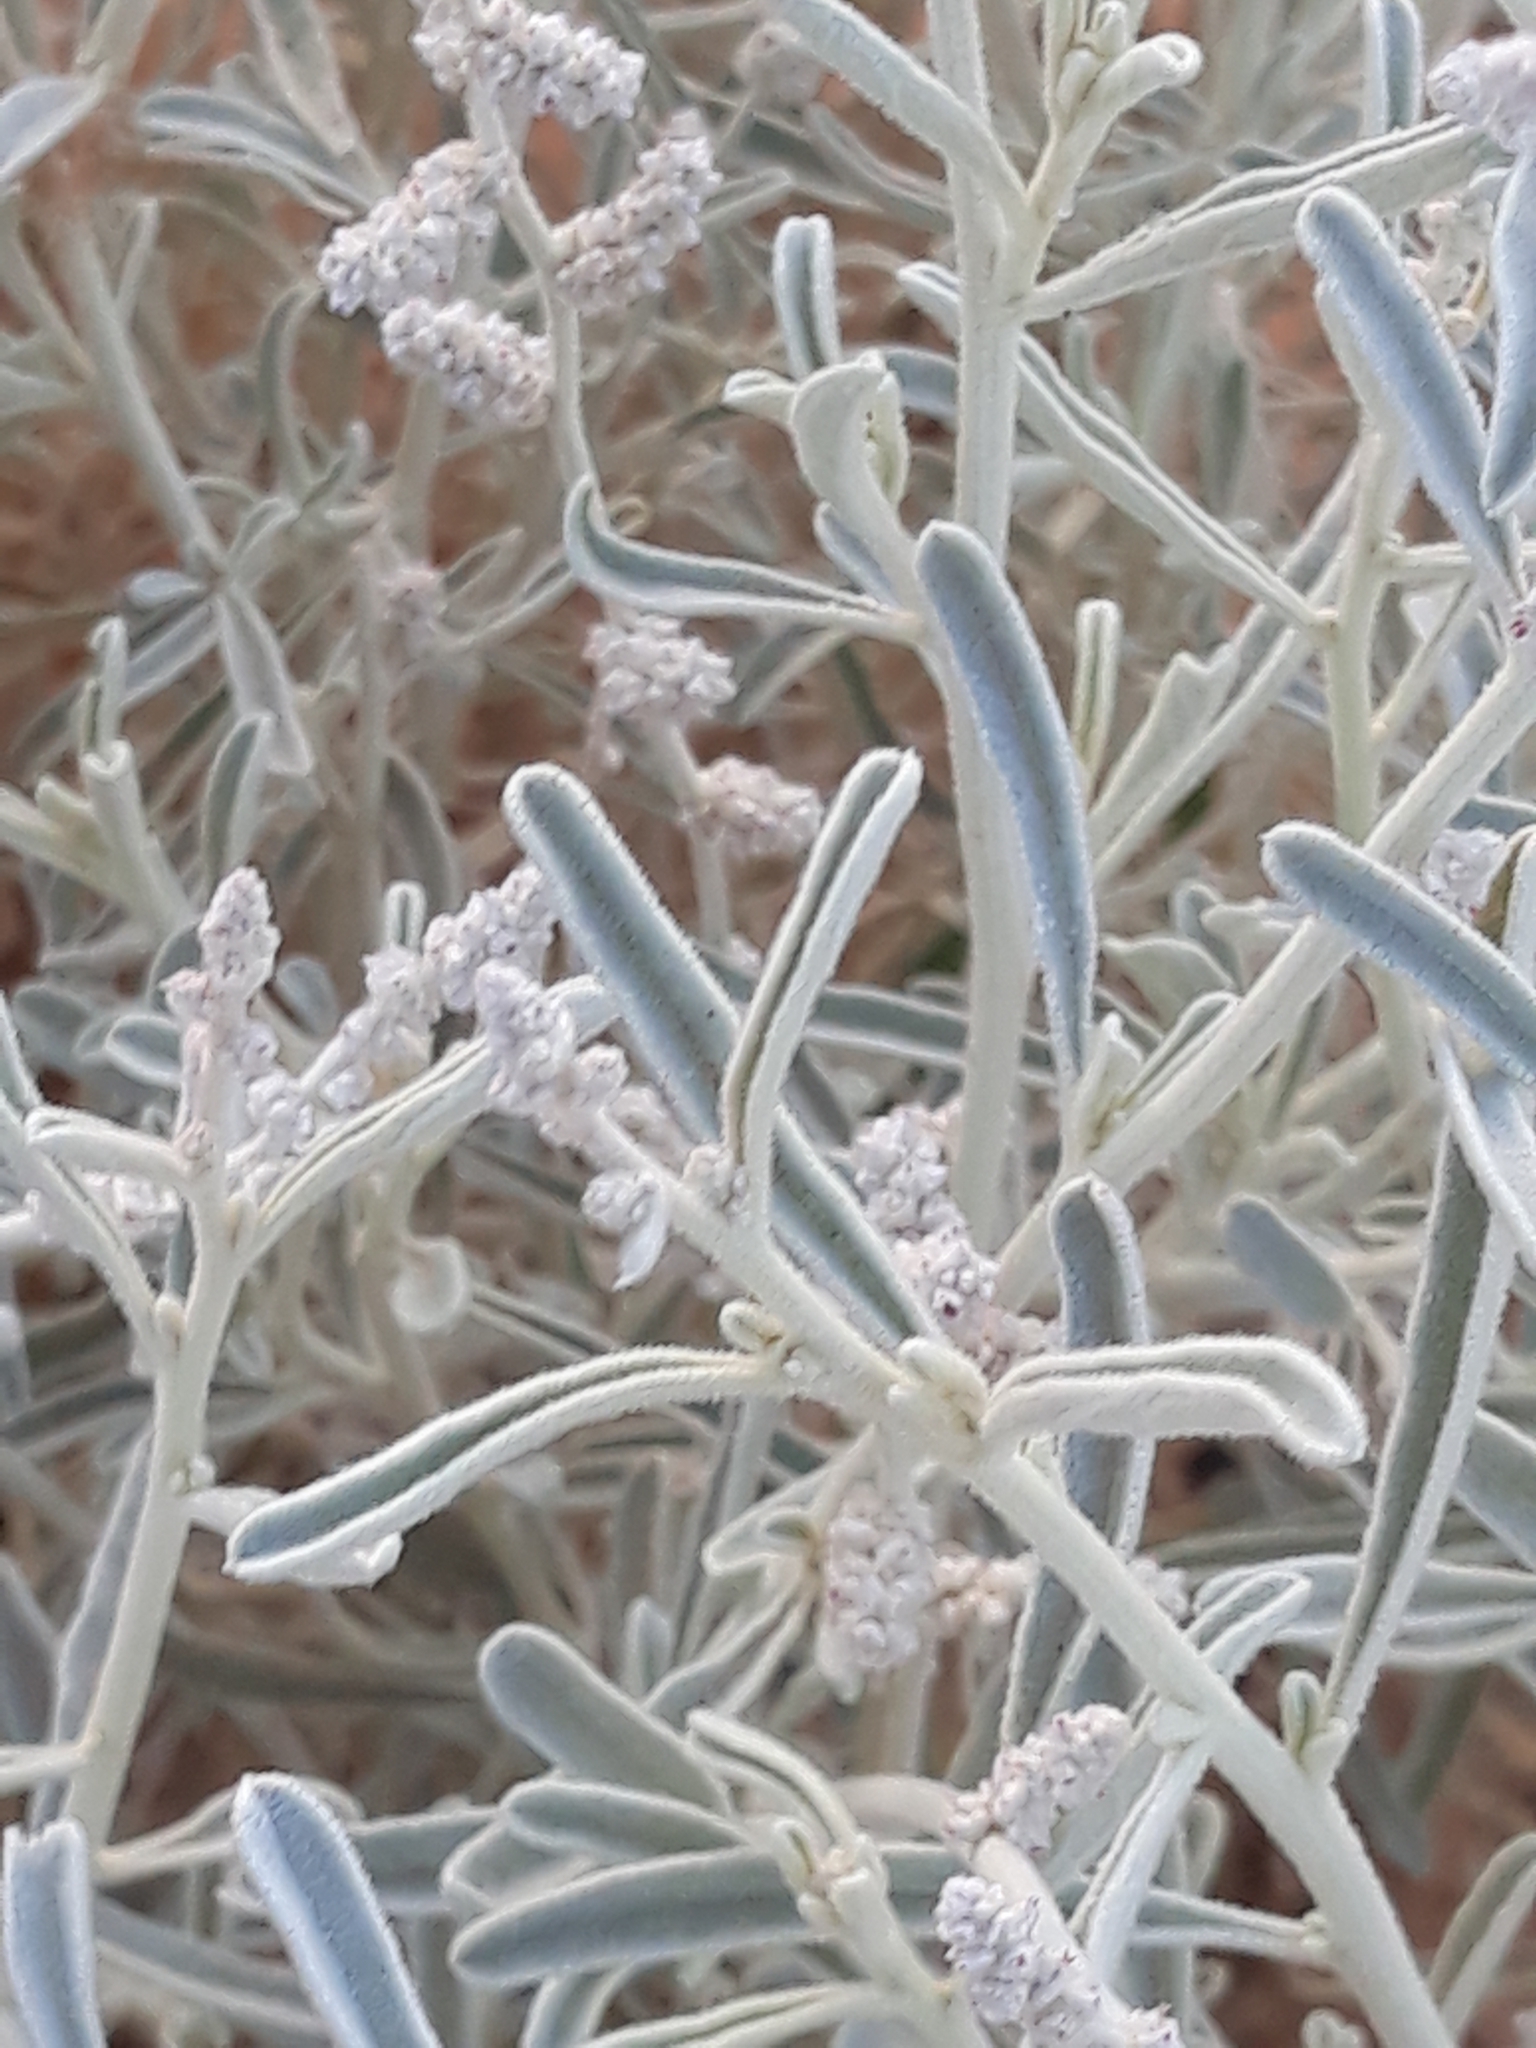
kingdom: Plantae
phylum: Tracheophyta
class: Magnoliopsida
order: Caryophyllales
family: Amaranthaceae
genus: Aerva
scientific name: Aerva javanica
